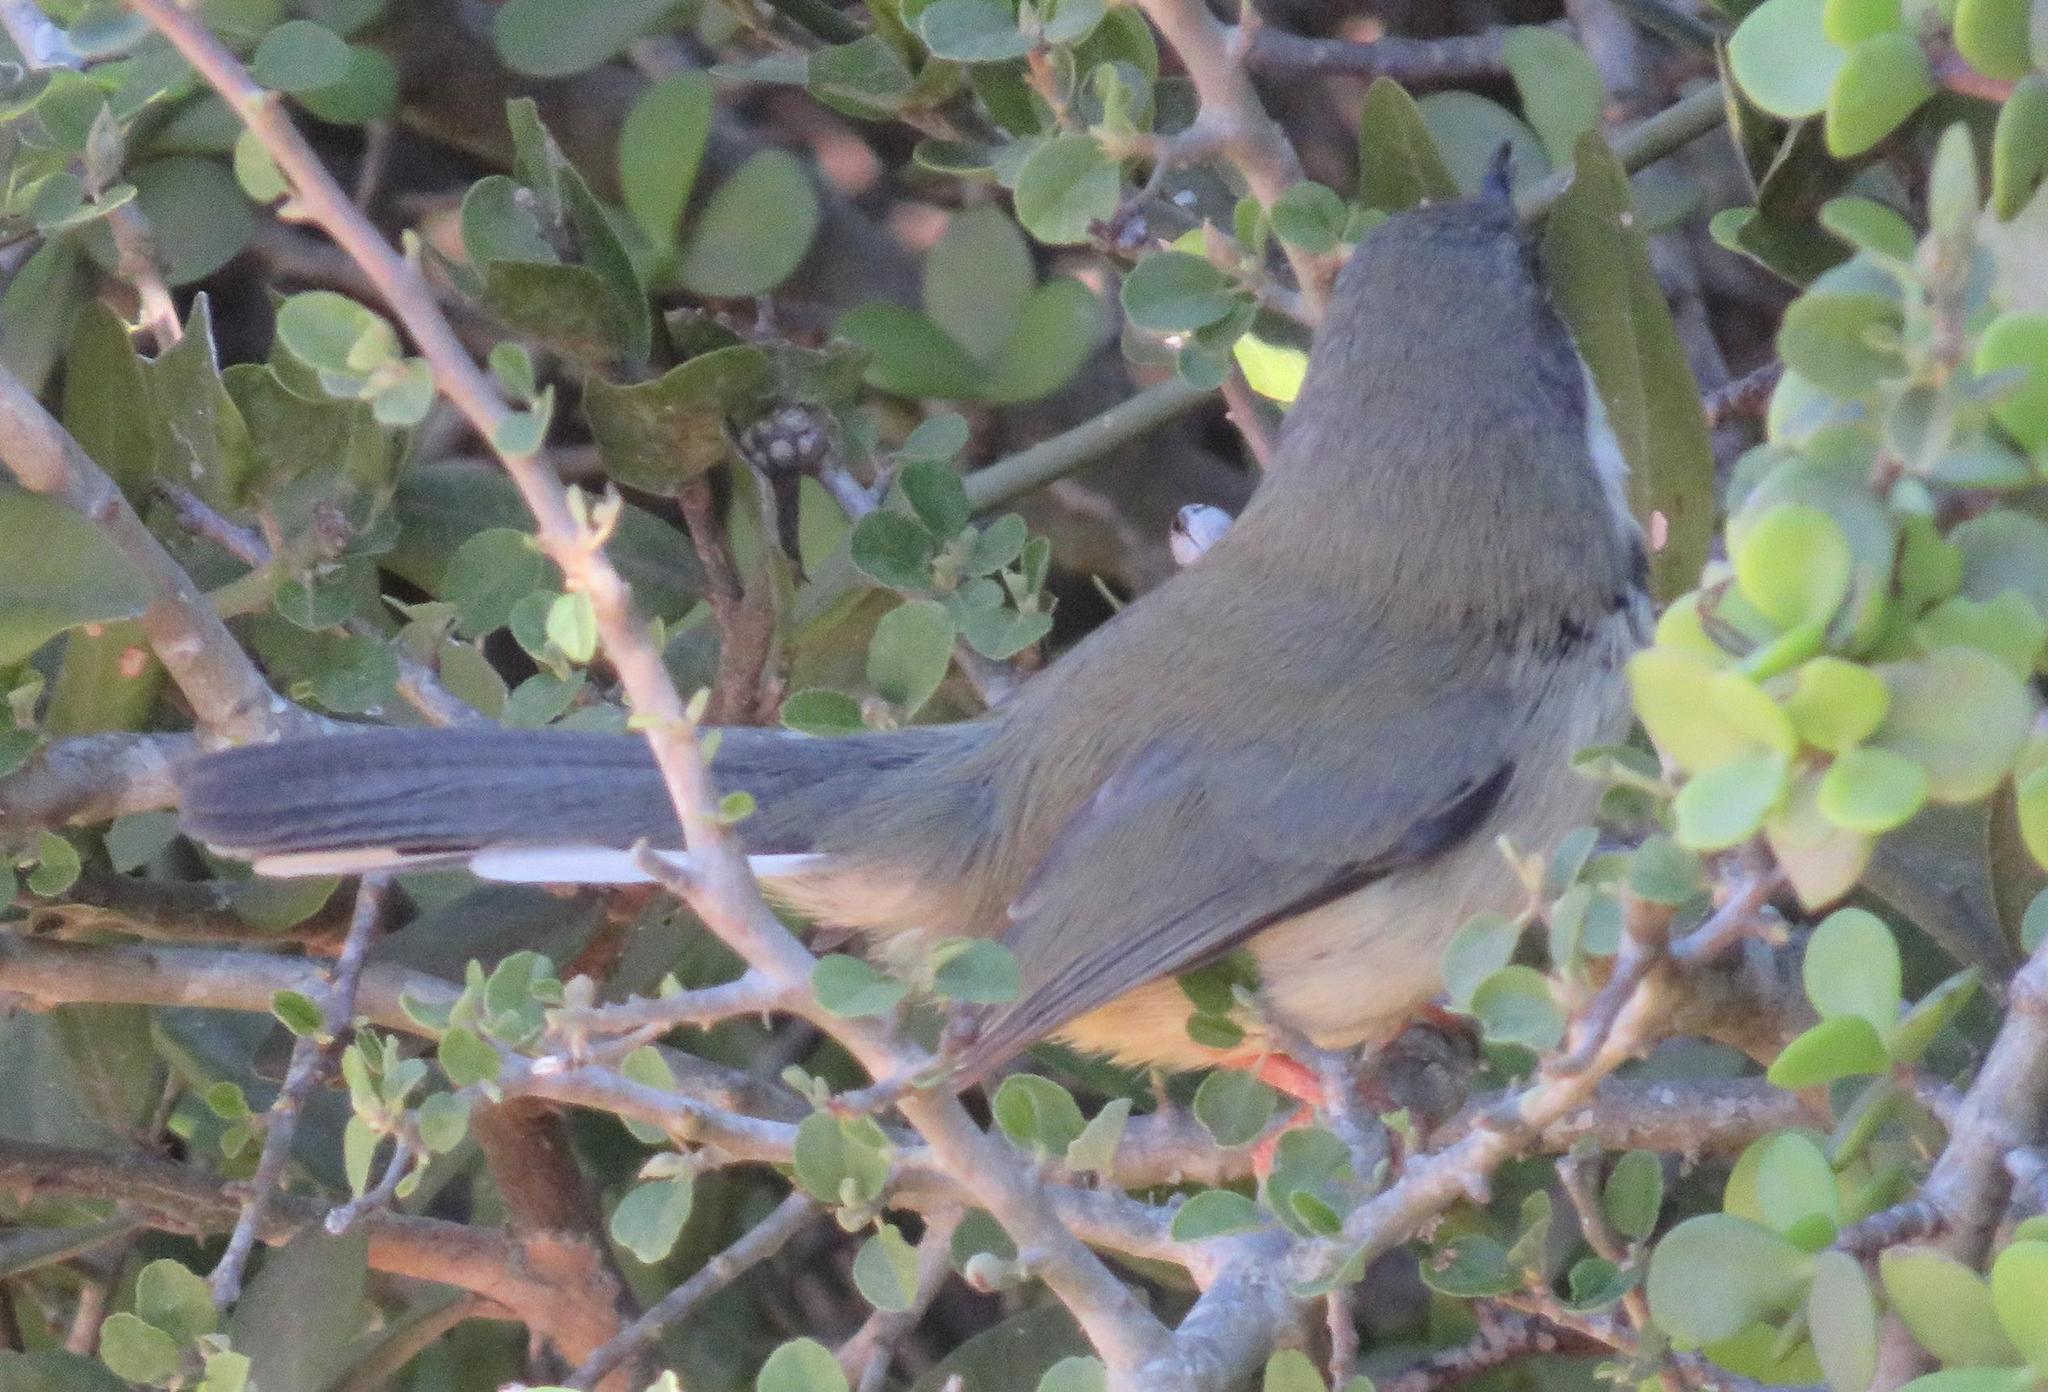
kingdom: Animalia
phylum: Chordata
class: Aves
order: Passeriformes
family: Cisticolidae
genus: Apalis
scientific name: Apalis thoracica
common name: Bar-throated apalis
